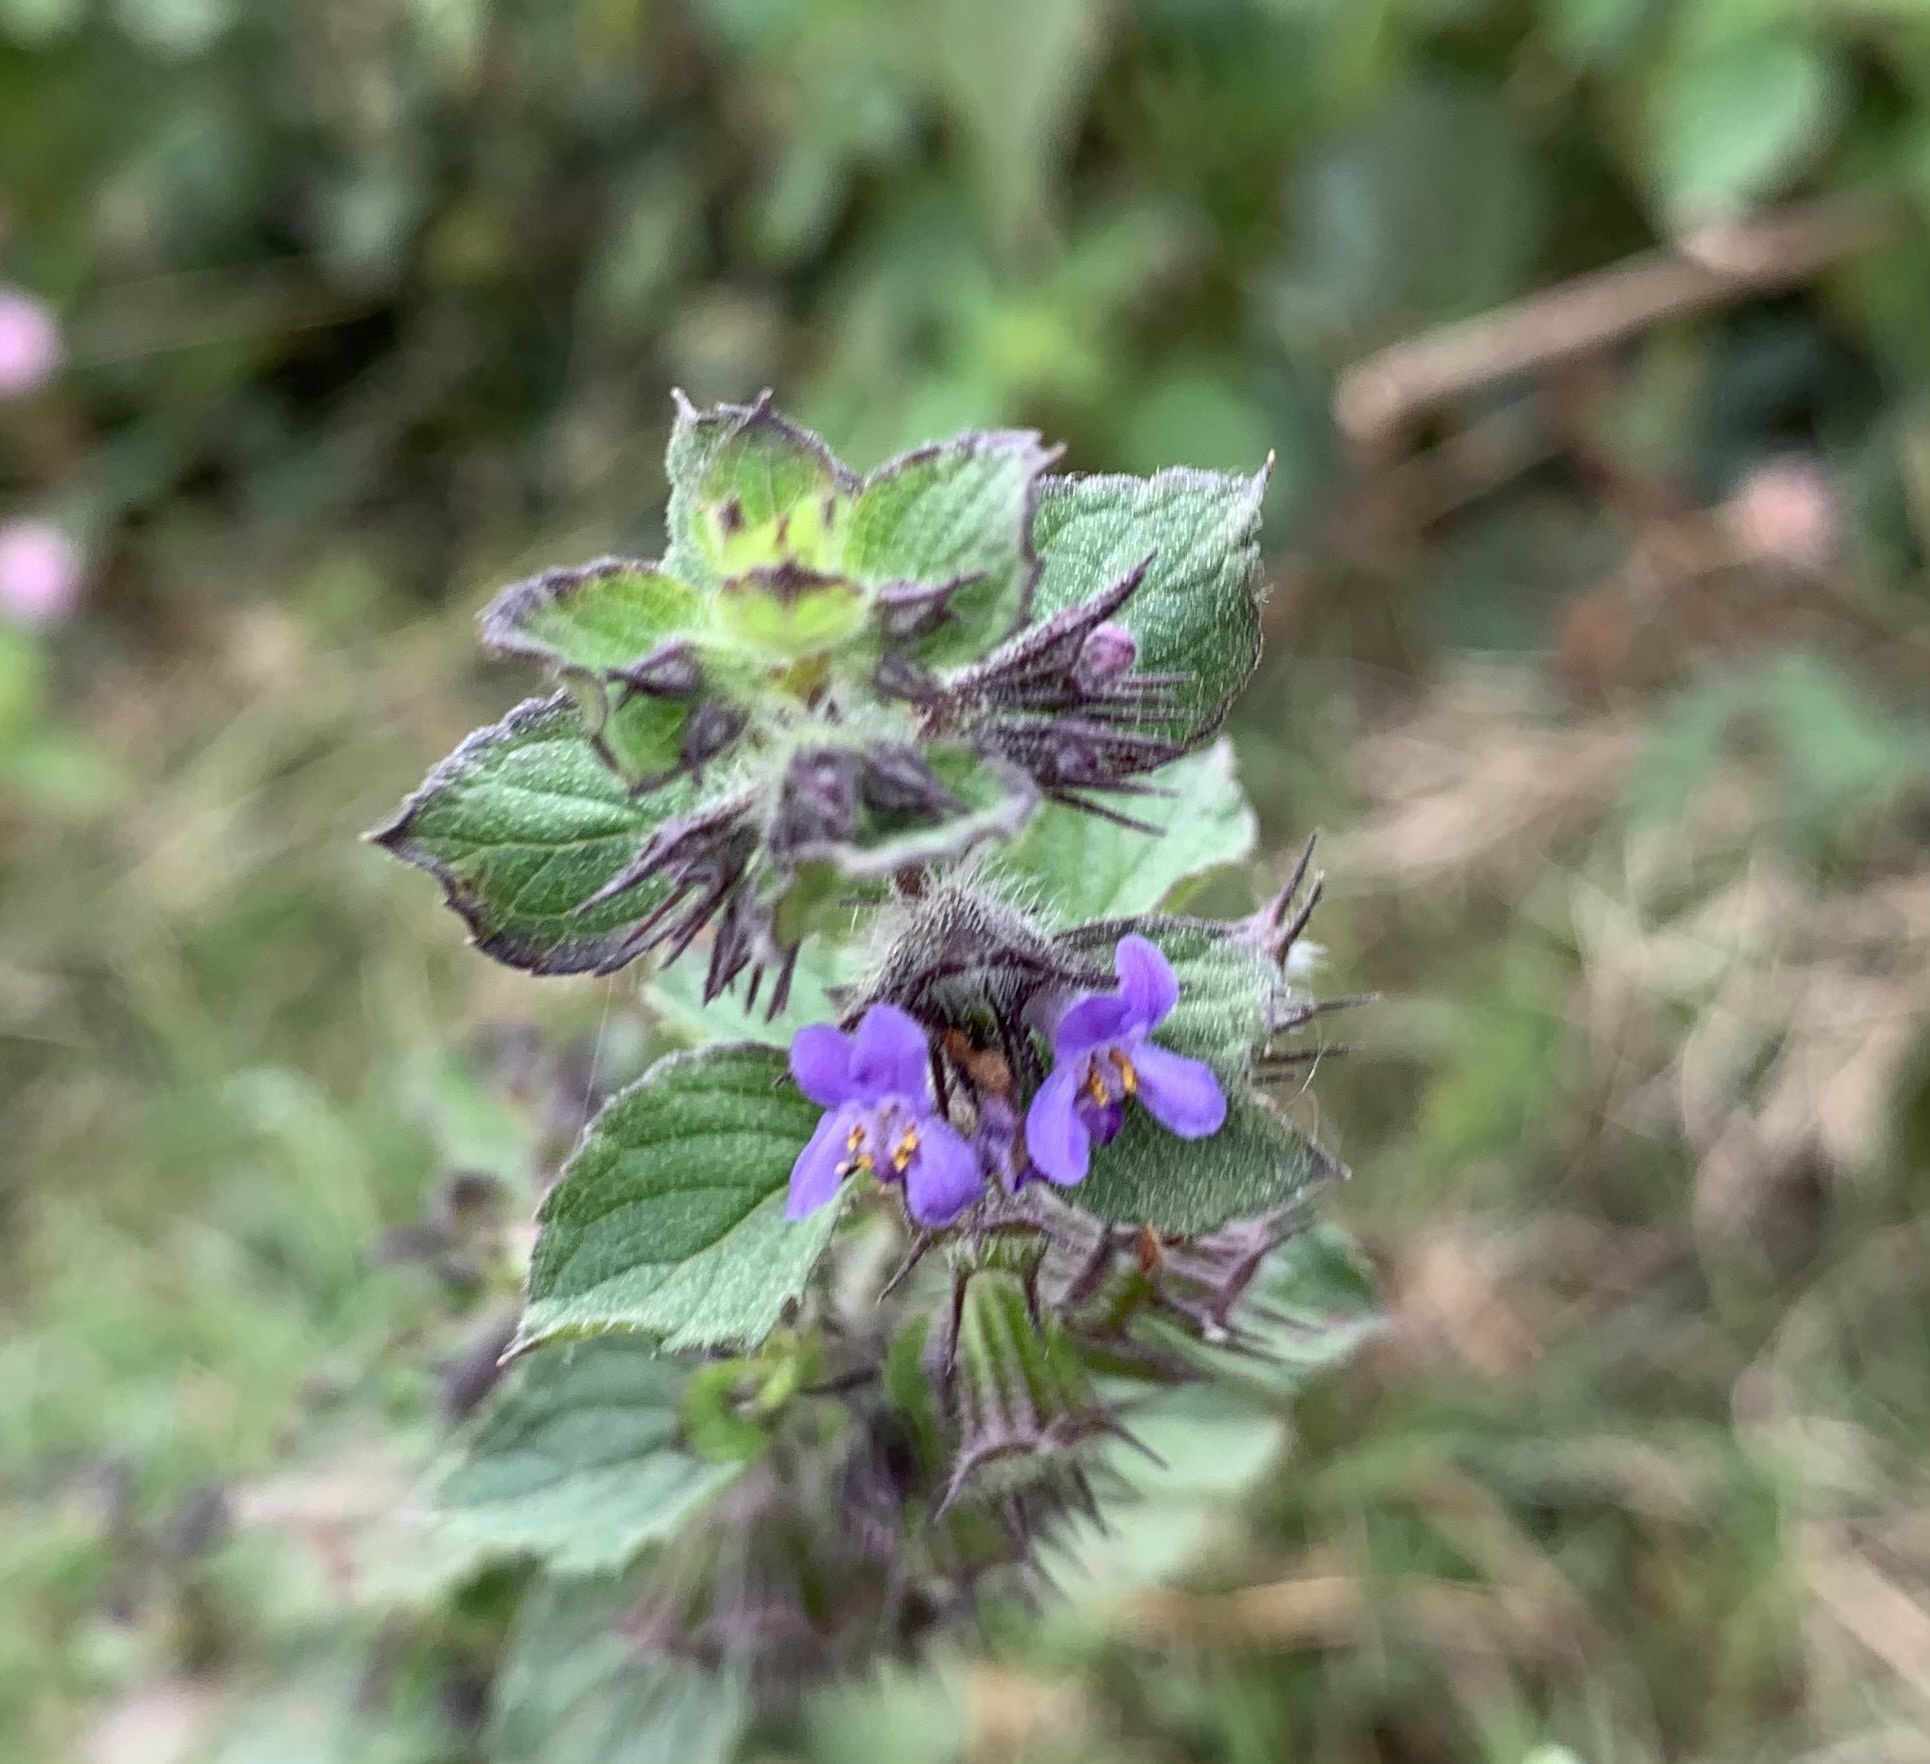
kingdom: Plantae
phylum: Tracheophyta
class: Magnoliopsida
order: Lamiales
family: Lamiaceae
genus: Mesosphaerum
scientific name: Mesosphaerum suaveolens
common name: Pignut
